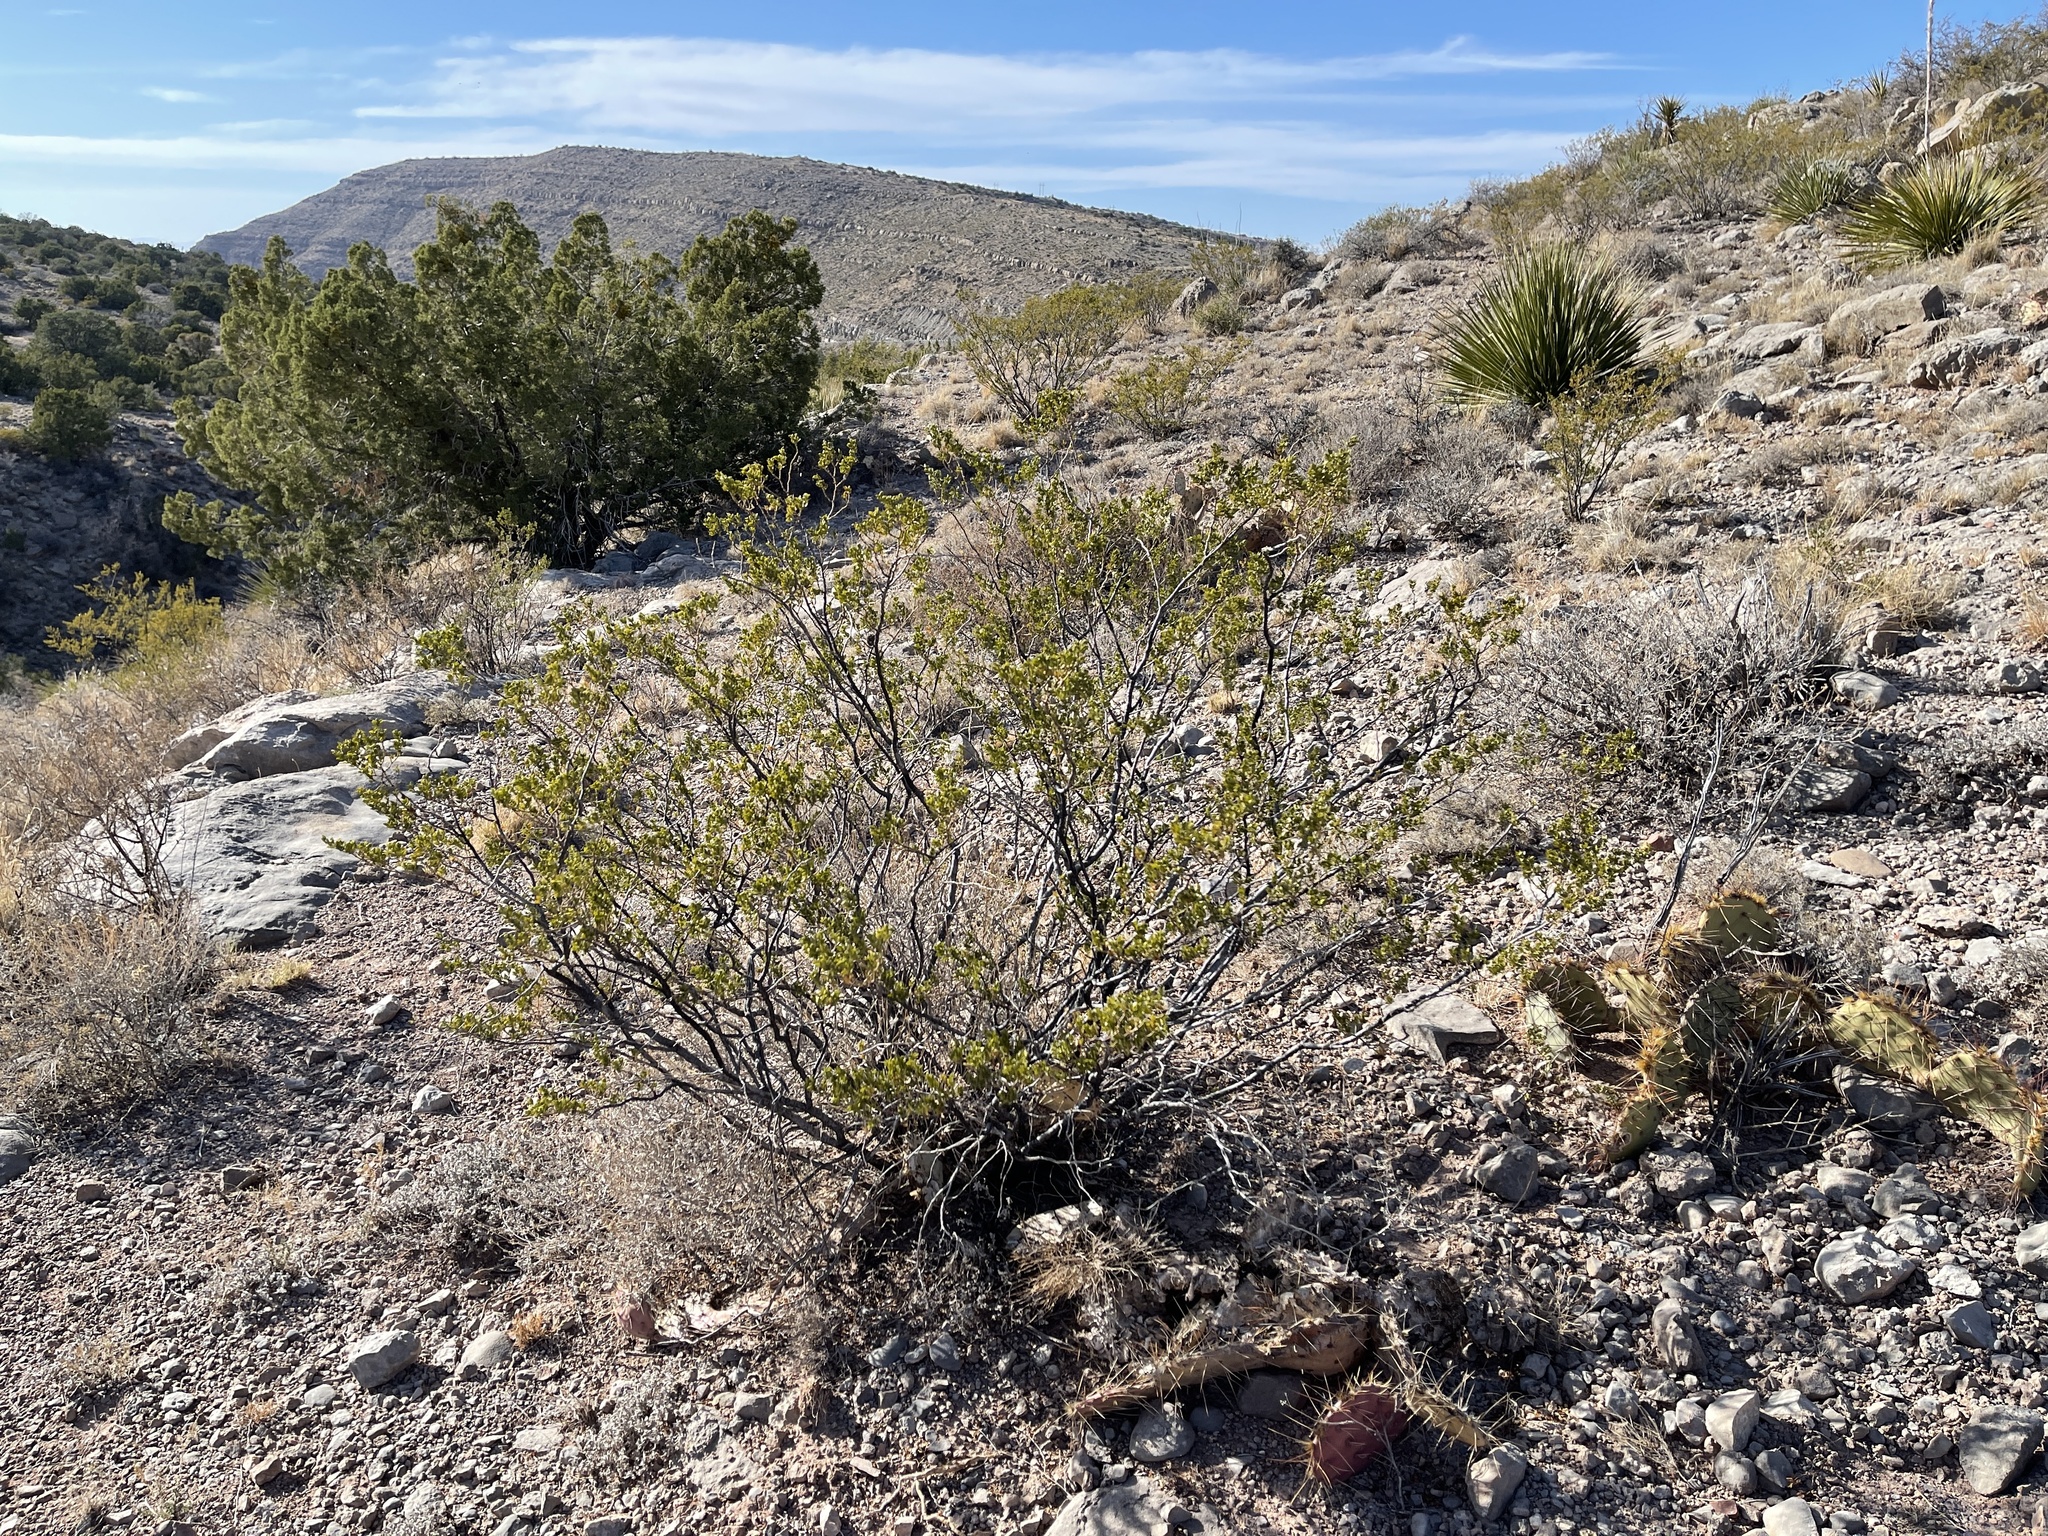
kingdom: Plantae
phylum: Tracheophyta
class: Magnoliopsida
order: Zygophyllales
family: Zygophyllaceae
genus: Larrea
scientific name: Larrea tridentata
